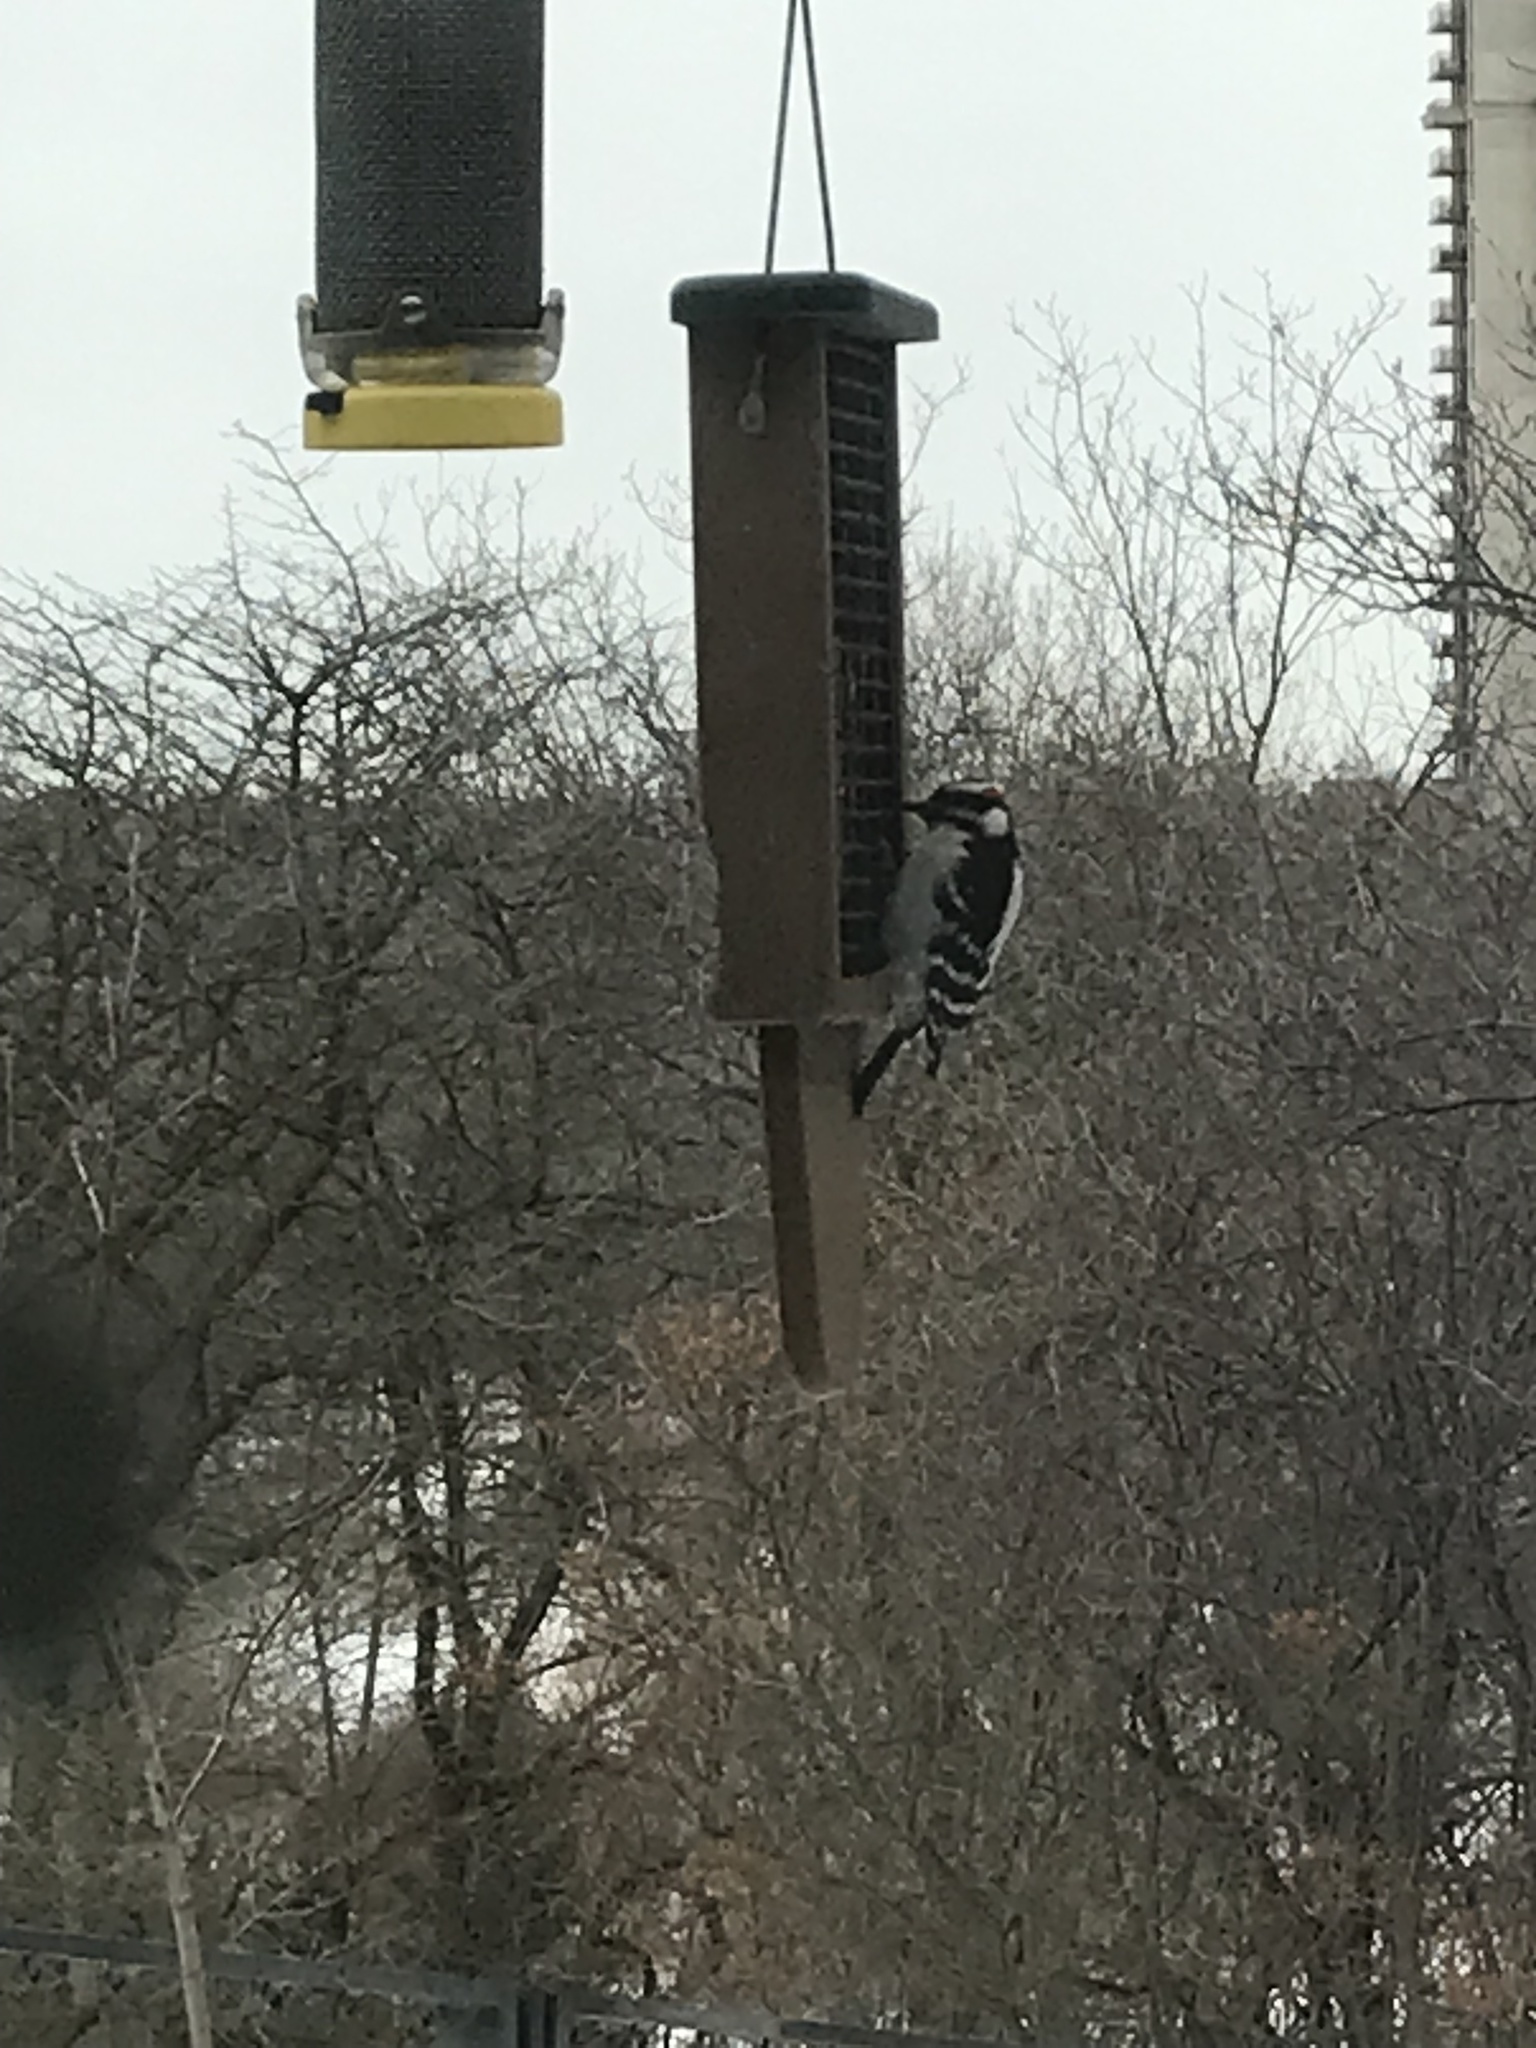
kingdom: Animalia
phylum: Chordata
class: Aves
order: Piciformes
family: Picidae
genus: Dryobates
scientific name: Dryobates pubescens
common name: Downy woodpecker
